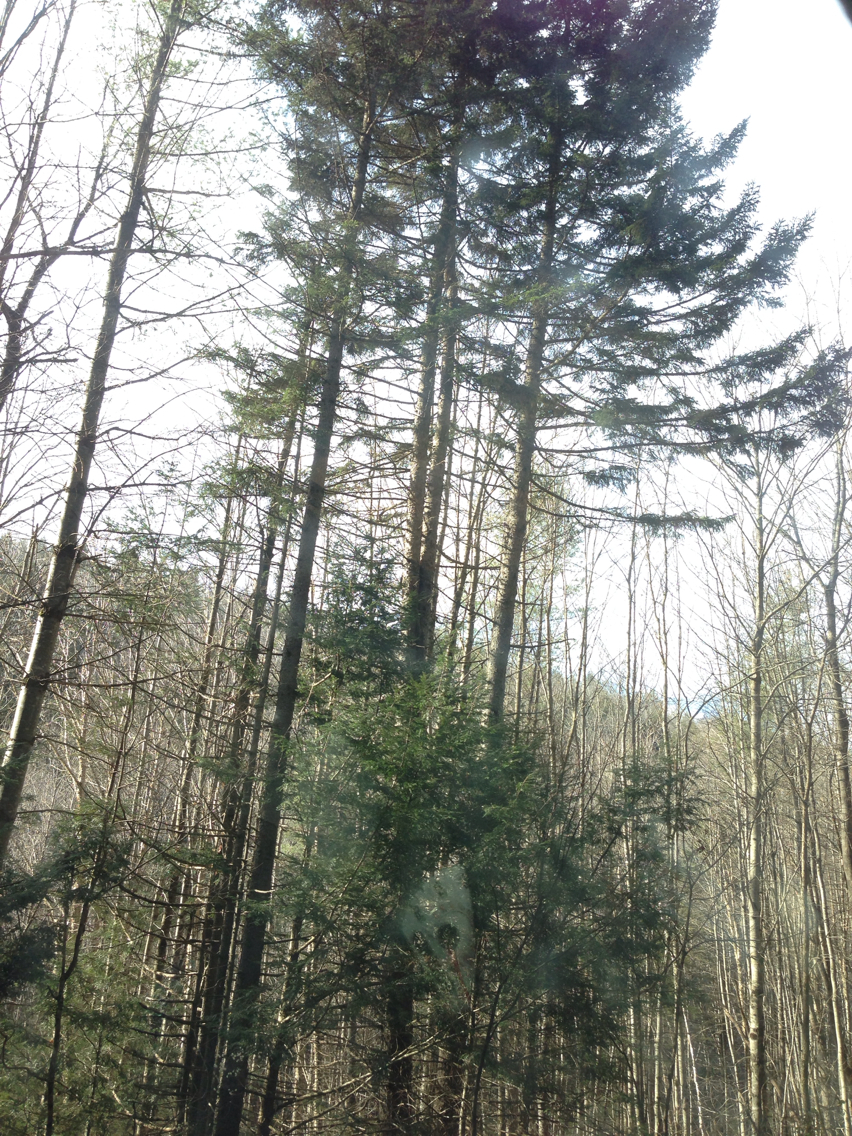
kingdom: Plantae
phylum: Tracheophyta
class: Pinopsida
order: Pinales
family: Pinaceae
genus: Picea
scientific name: Picea rubens
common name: Red spruce
